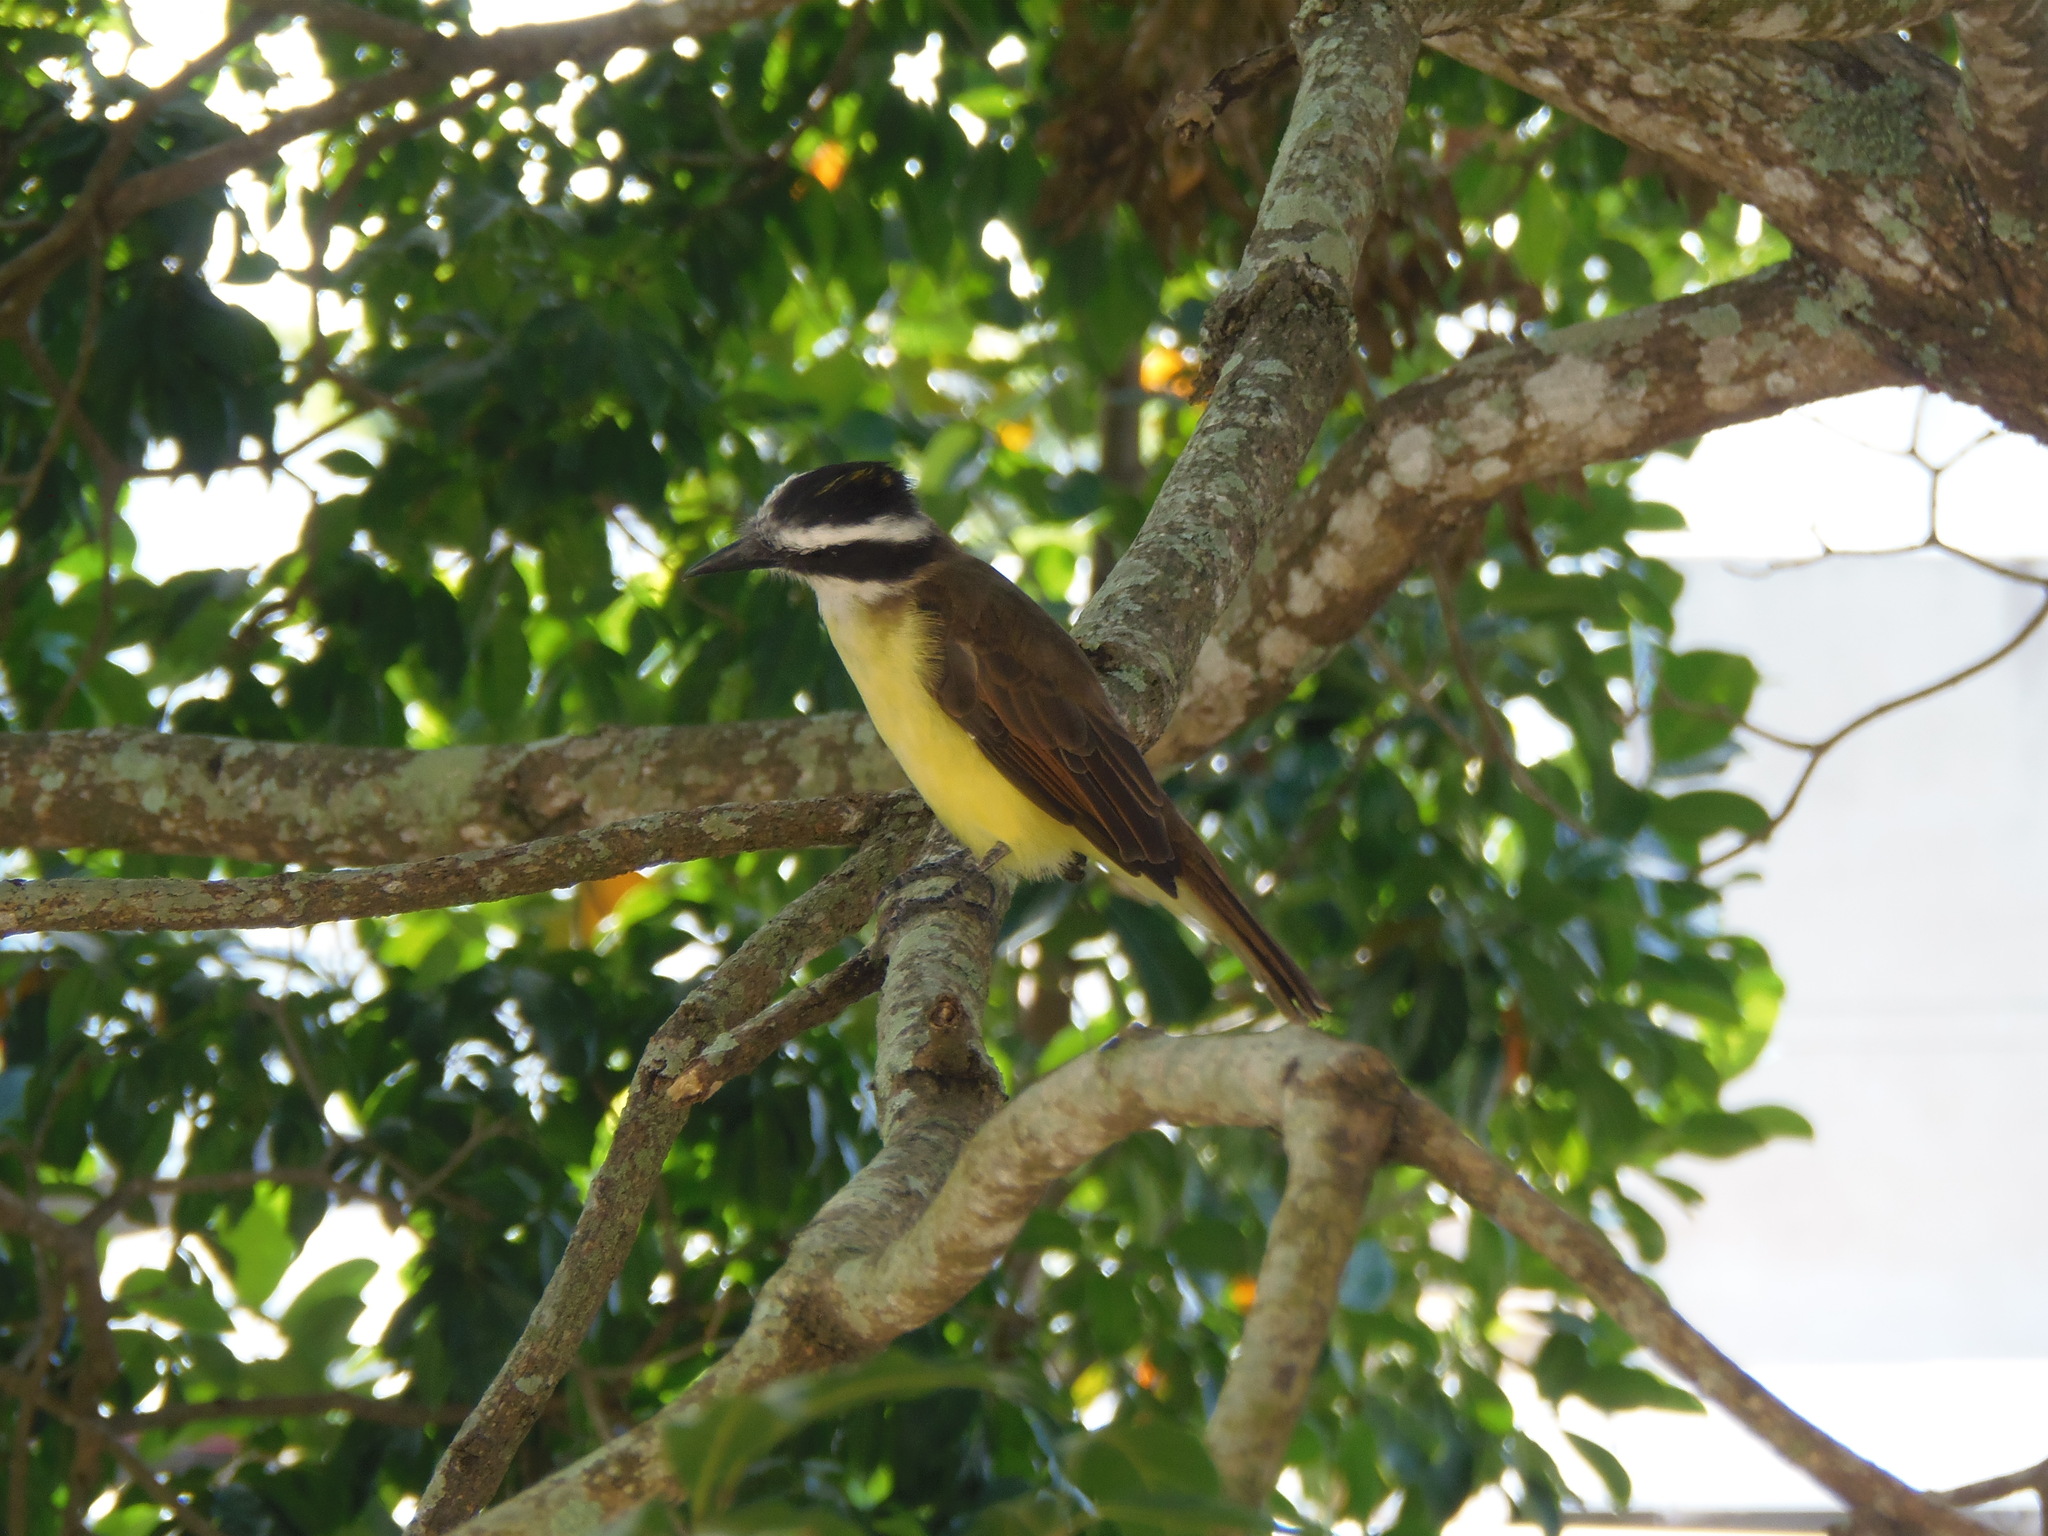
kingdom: Animalia
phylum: Chordata
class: Aves
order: Passeriformes
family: Tyrannidae
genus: Pitangus
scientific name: Pitangus sulphuratus
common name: Great kiskadee
